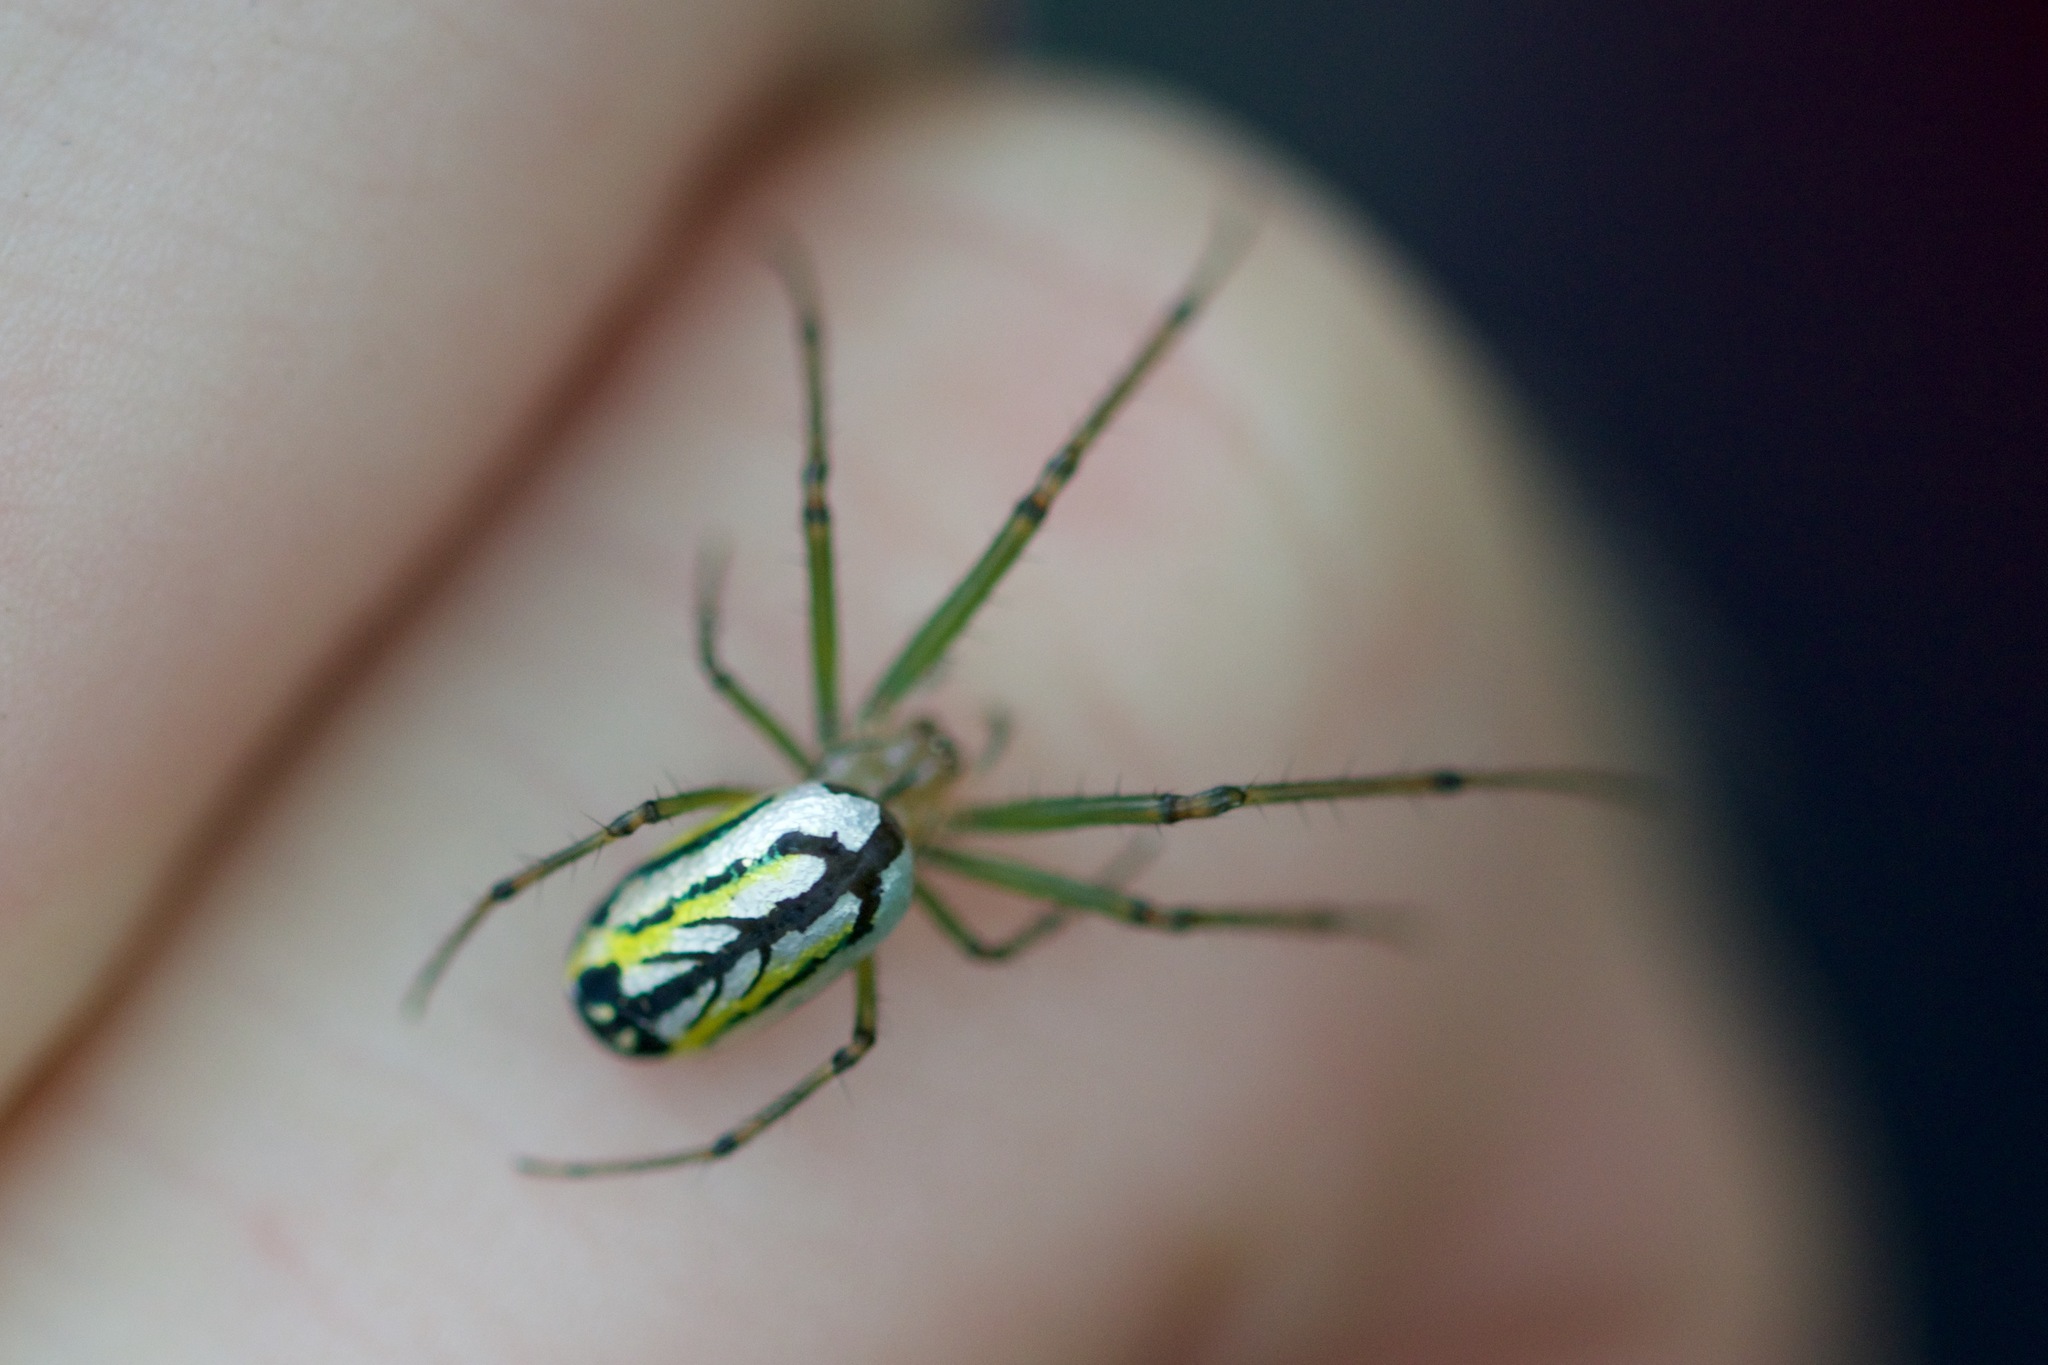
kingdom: Animalia
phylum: Arthropoda
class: Arachnida
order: Araneae
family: Tetragnathidae
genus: Leucauge
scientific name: Leucauge venusta
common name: Longjawed orb weavers
